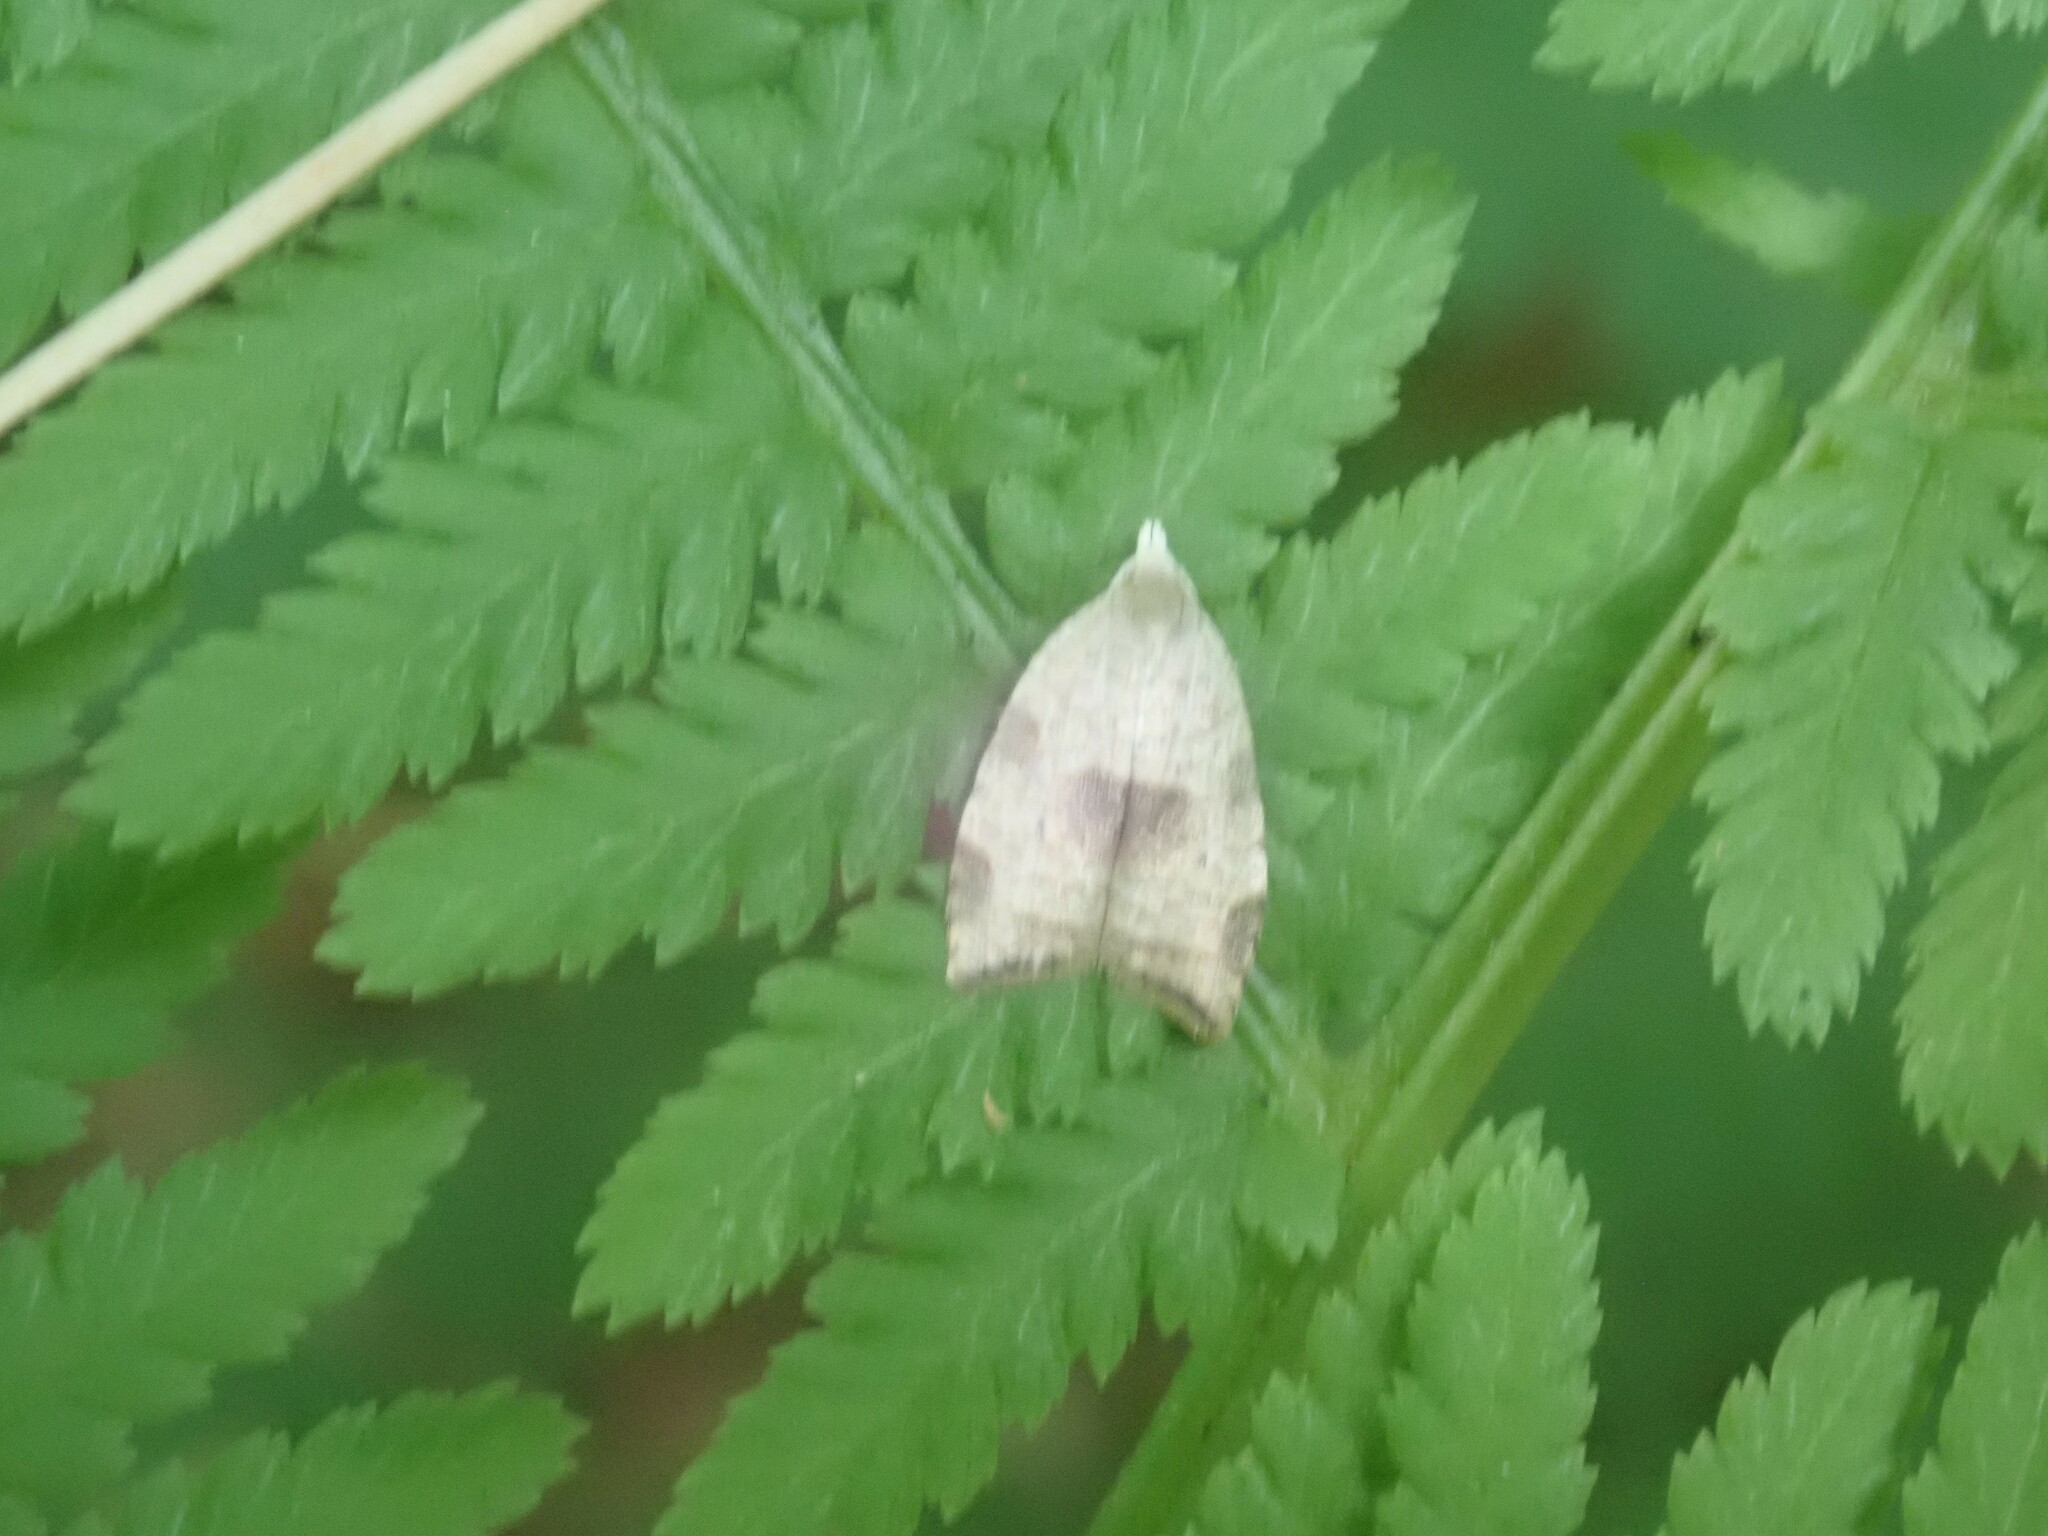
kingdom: Animalia
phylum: Arthropoda
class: Insecta
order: Lepidoptera
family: Tortricidae
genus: Coelostathma
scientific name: Coelostathma discopunctana
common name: Batman moth
